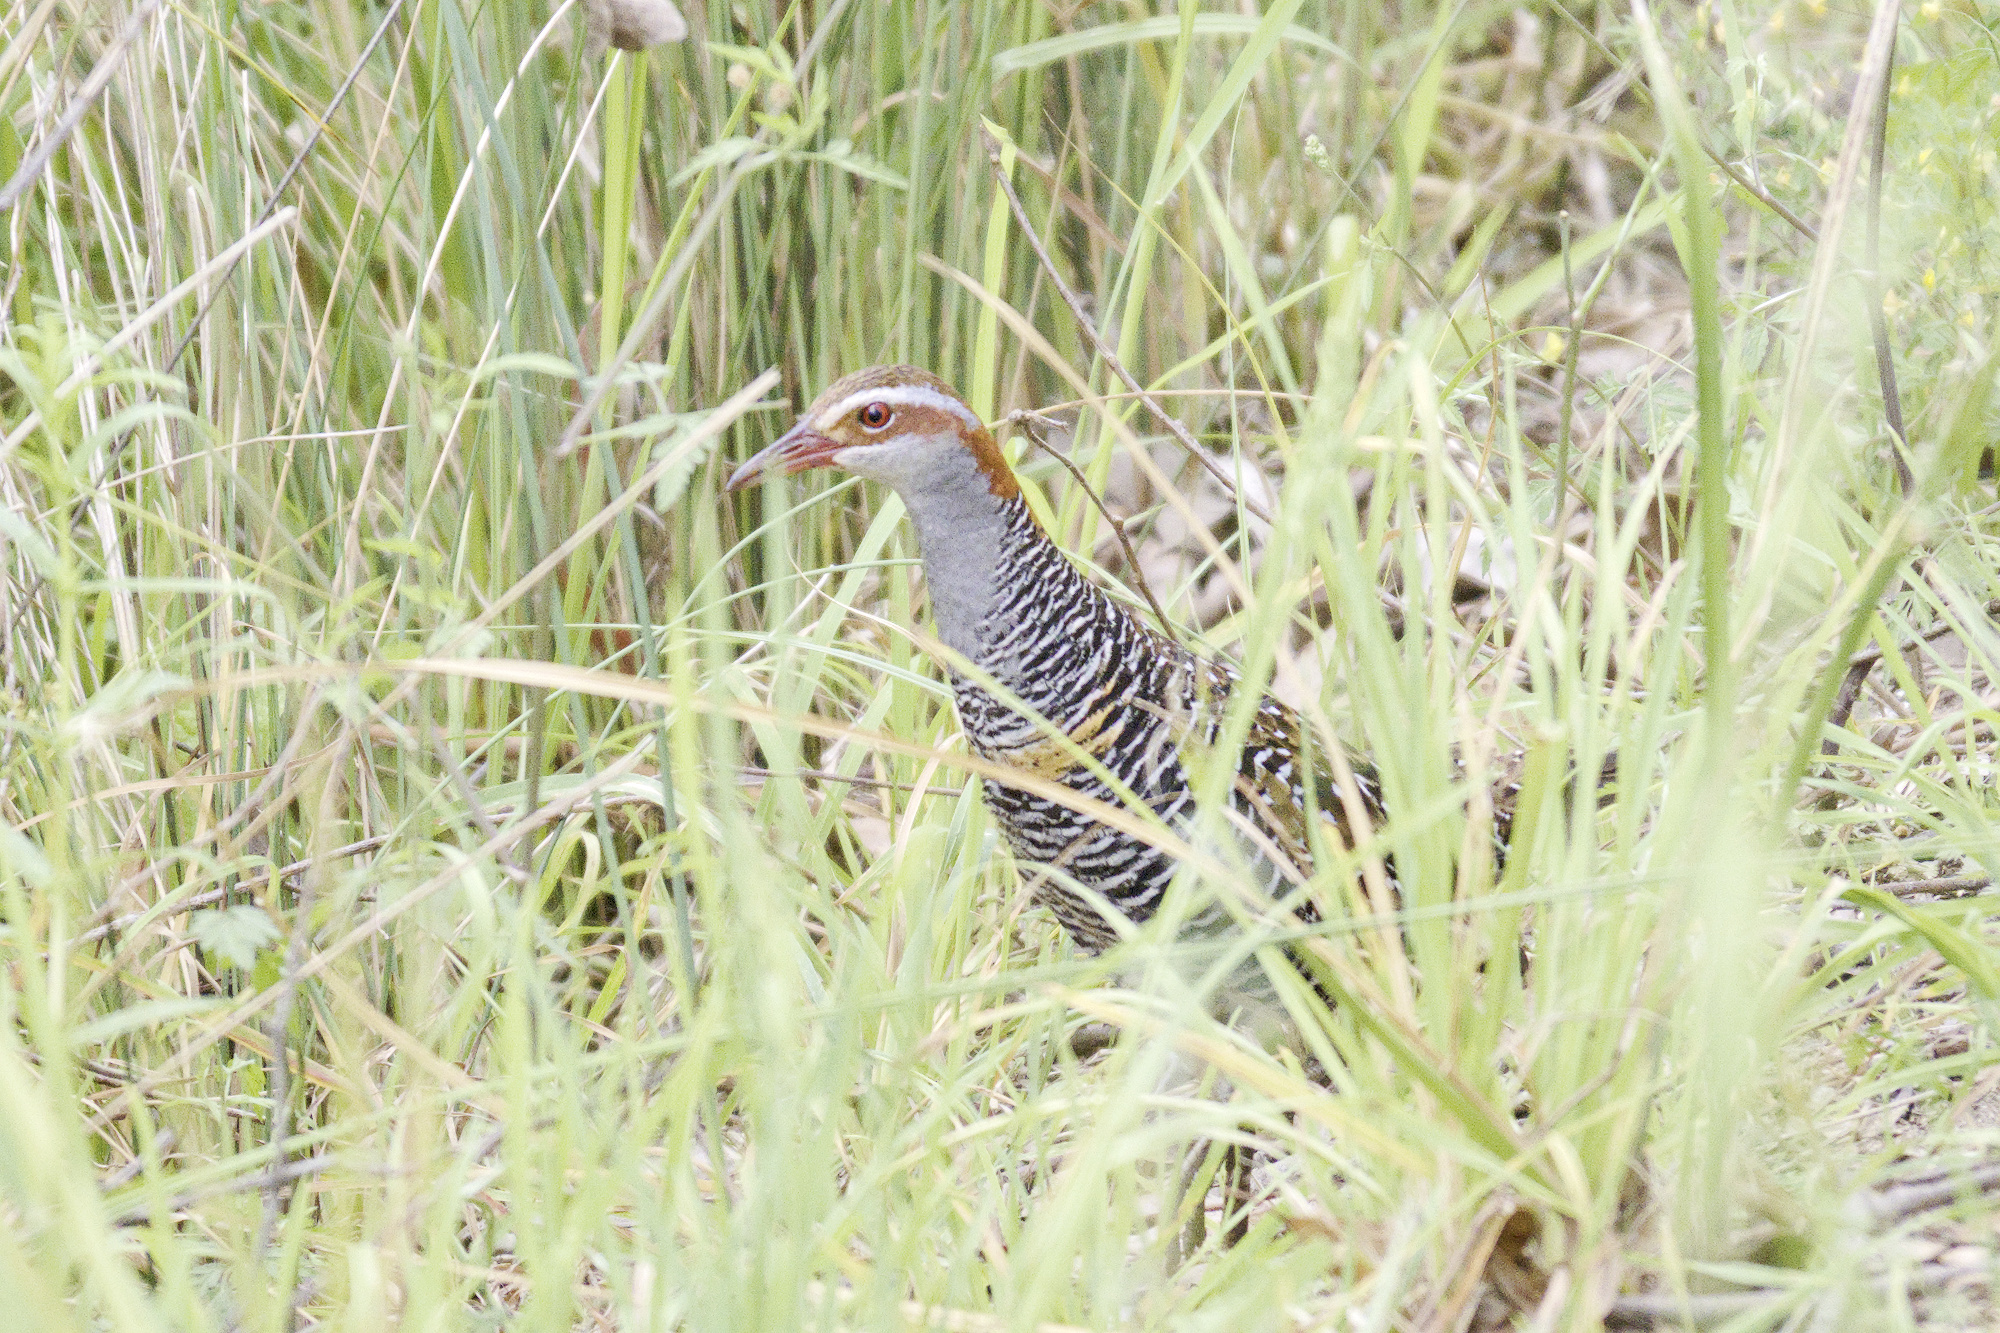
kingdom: Animalia
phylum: Chordata
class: Aves
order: Gruiformes
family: Rallidae
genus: Gallirallus
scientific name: Gallirallus philippensis
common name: Buff-banded rail
